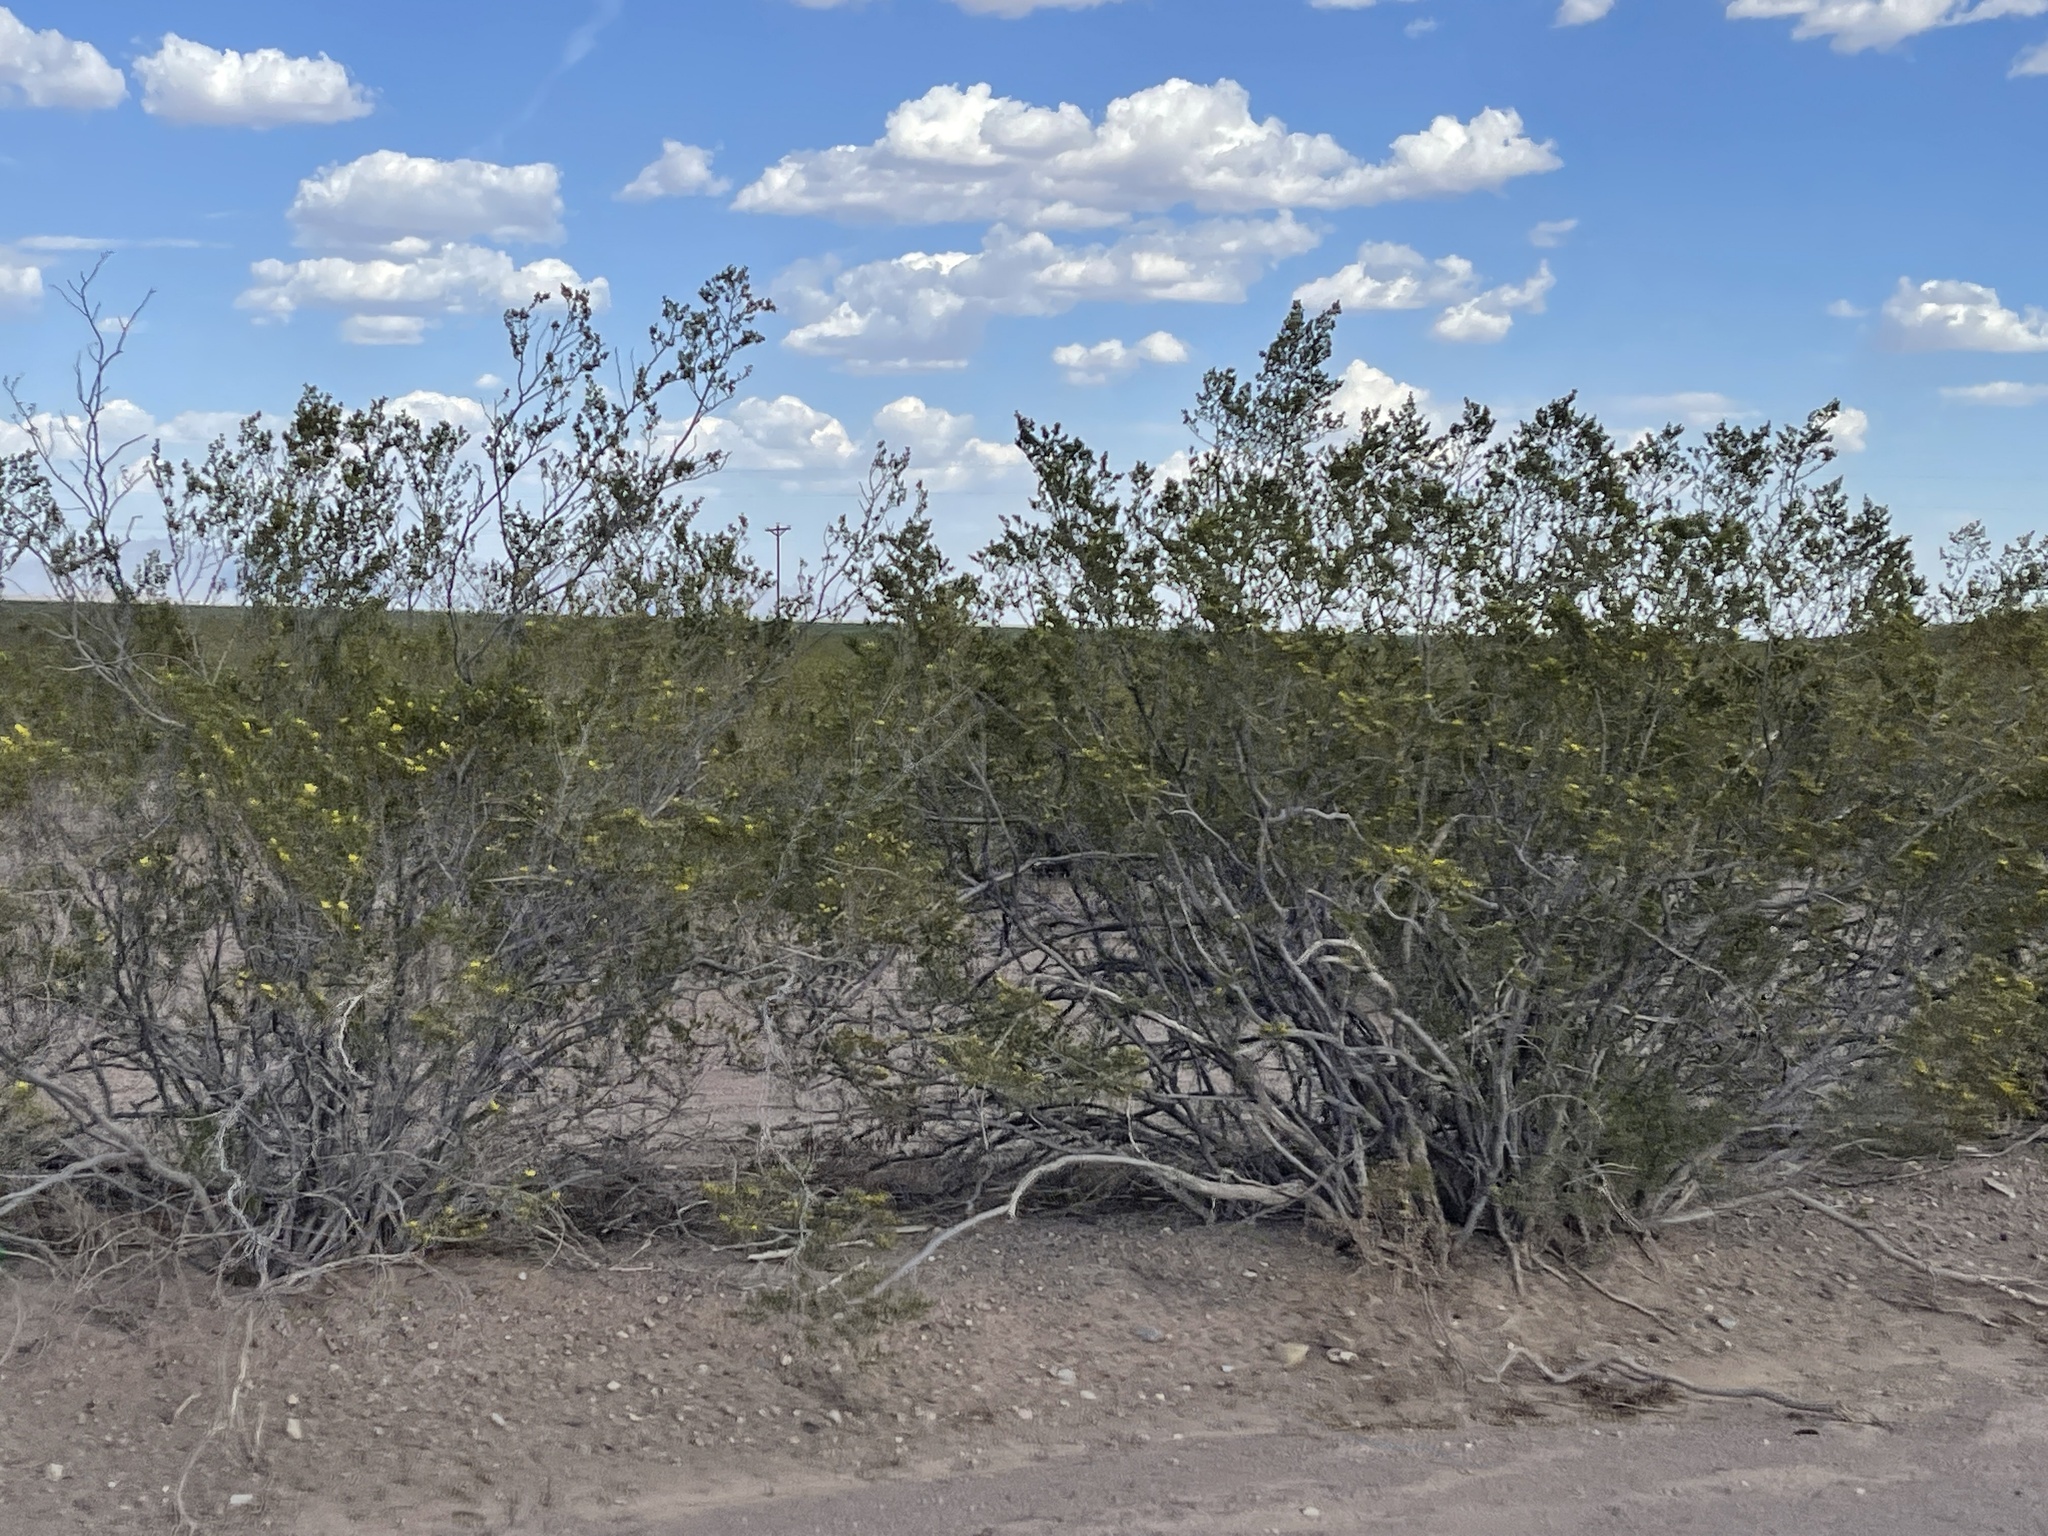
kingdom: Plantae
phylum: Tracheophyta
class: Magnoliopsida
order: Zygophyllales
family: Zygophyllaceae
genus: Larrea
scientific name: Larrea tridentata
